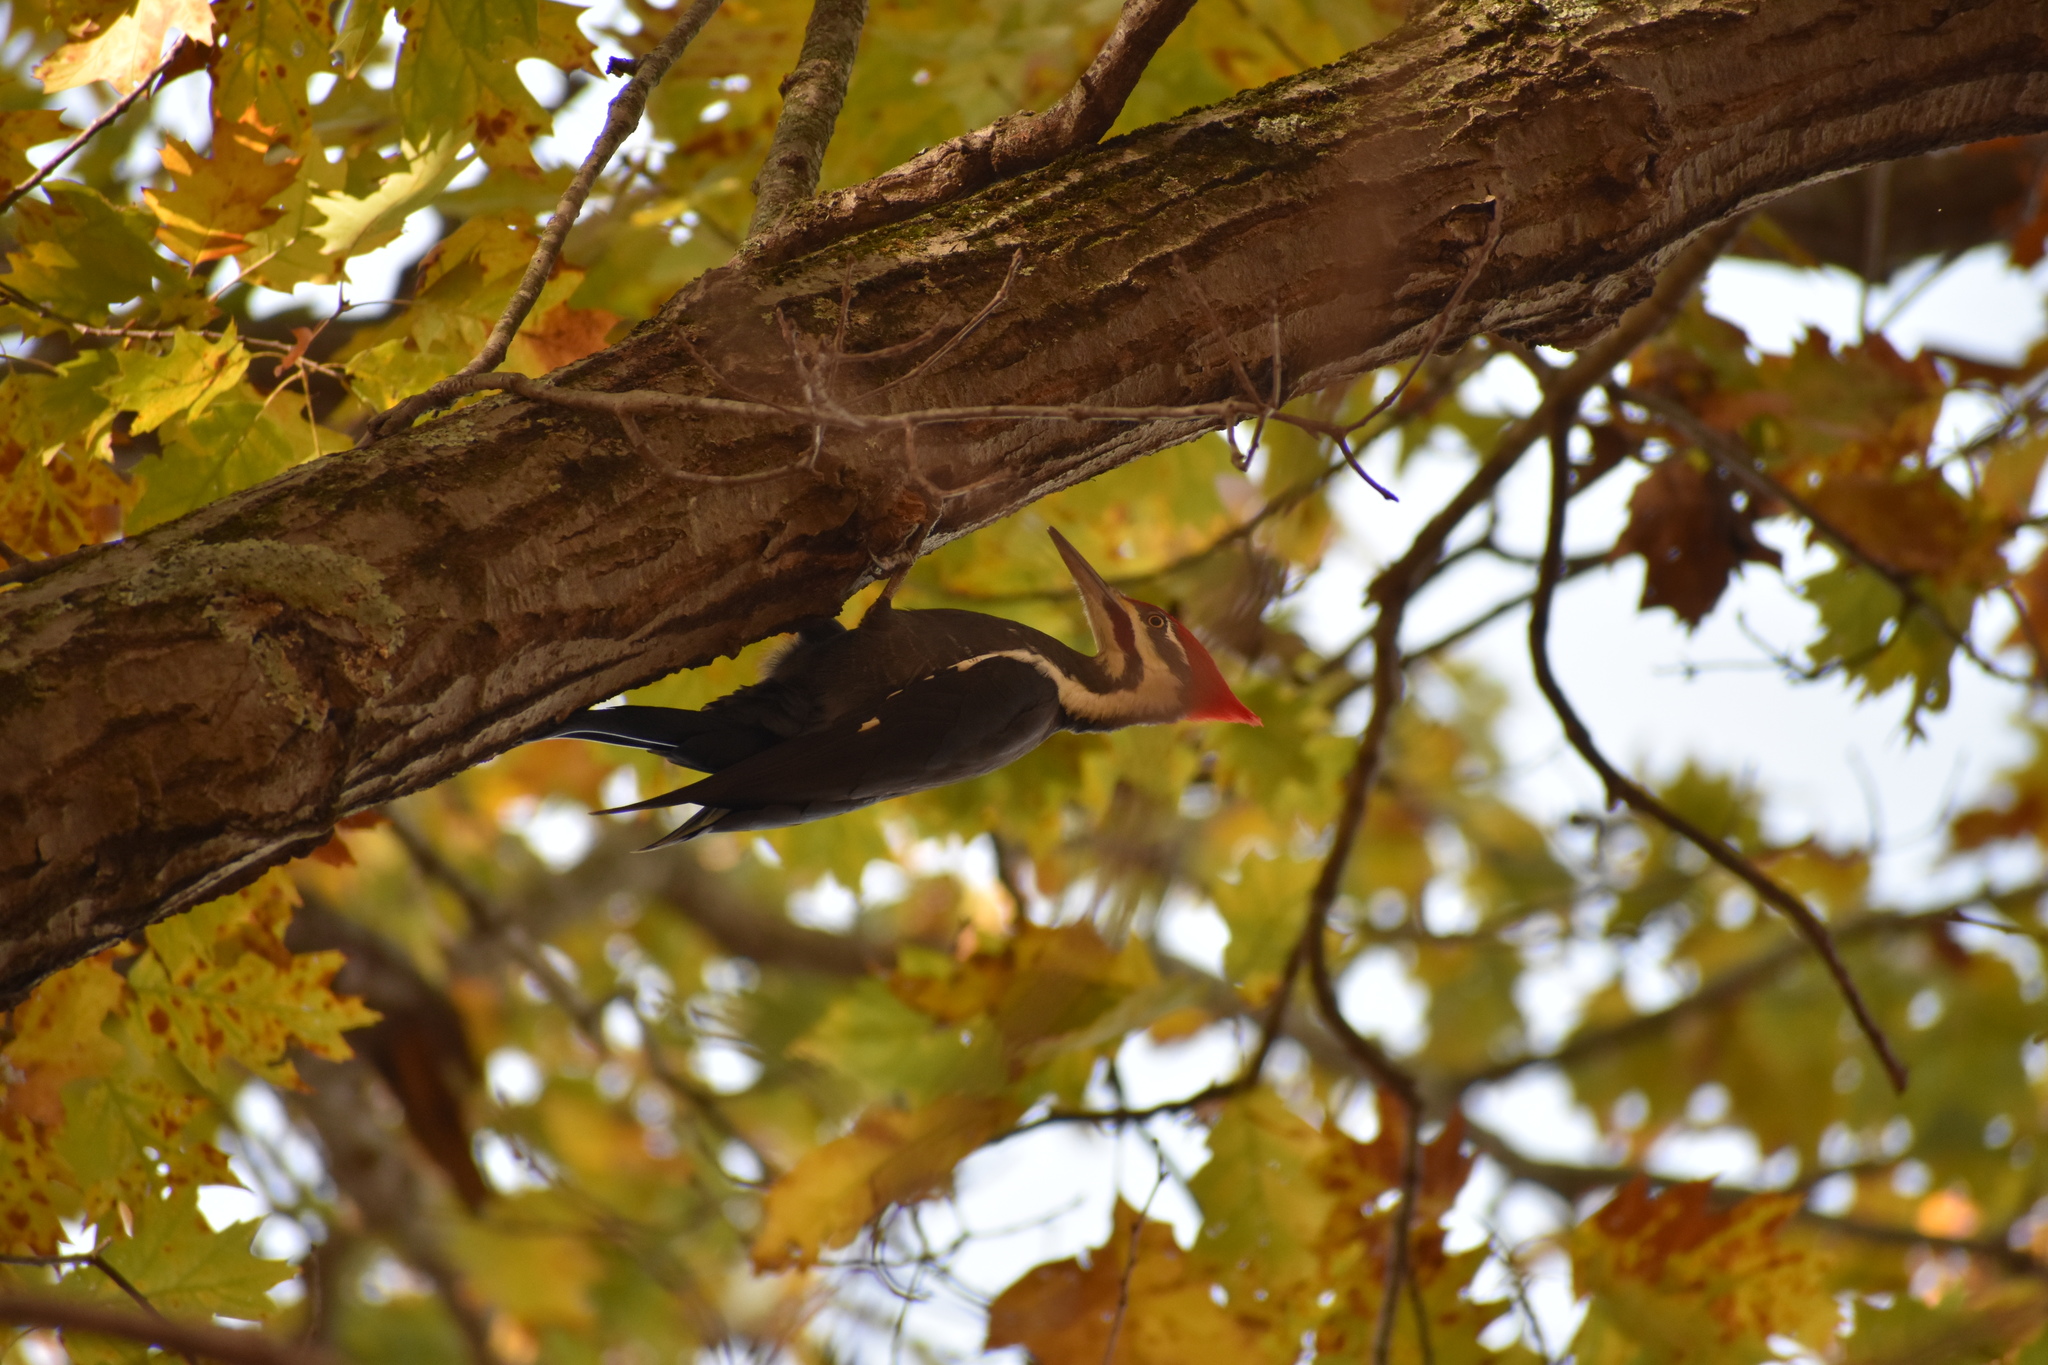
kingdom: Animalia
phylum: Chordata
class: Aves
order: Piciformes
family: Picidae
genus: Dryocopus
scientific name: Dryocopus pileatus
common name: Pileated woodpecker
